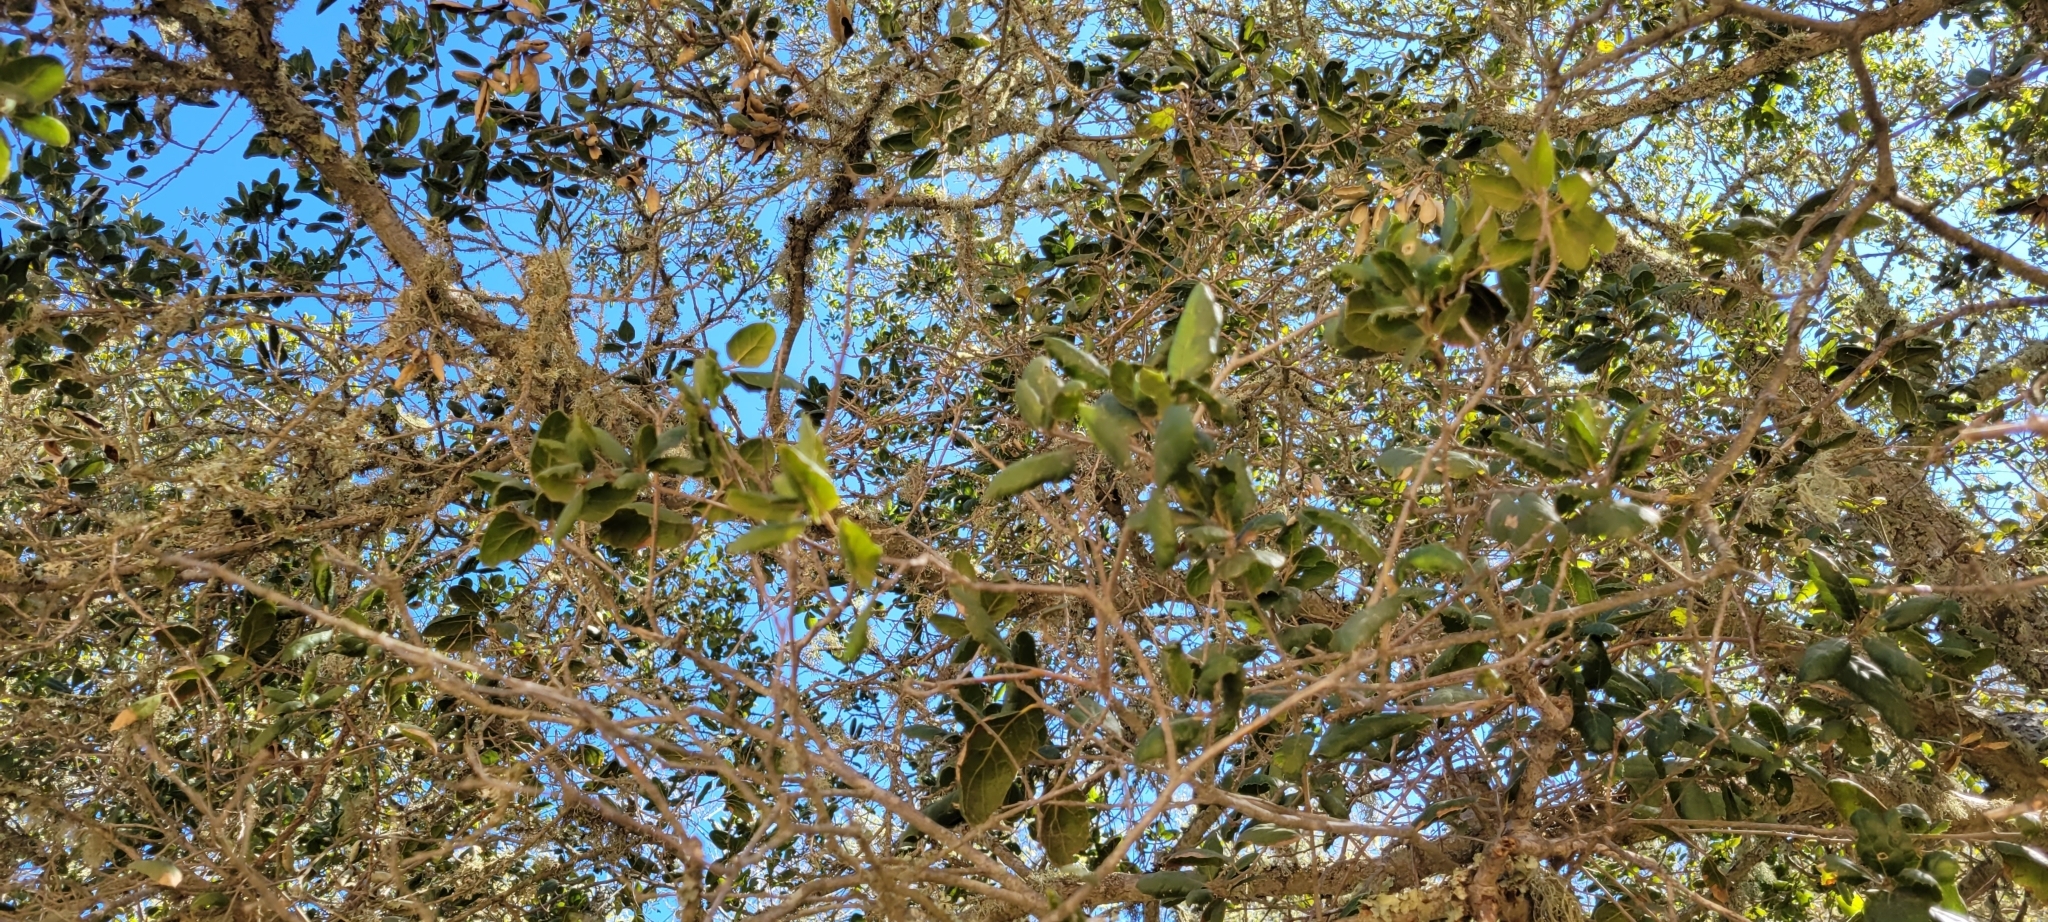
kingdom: Plantae
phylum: Tracheophyta
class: Magnoliopsida
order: Fagales
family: Fagaceae
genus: Quercus
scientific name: Quercus agrifolia
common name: California live oak
